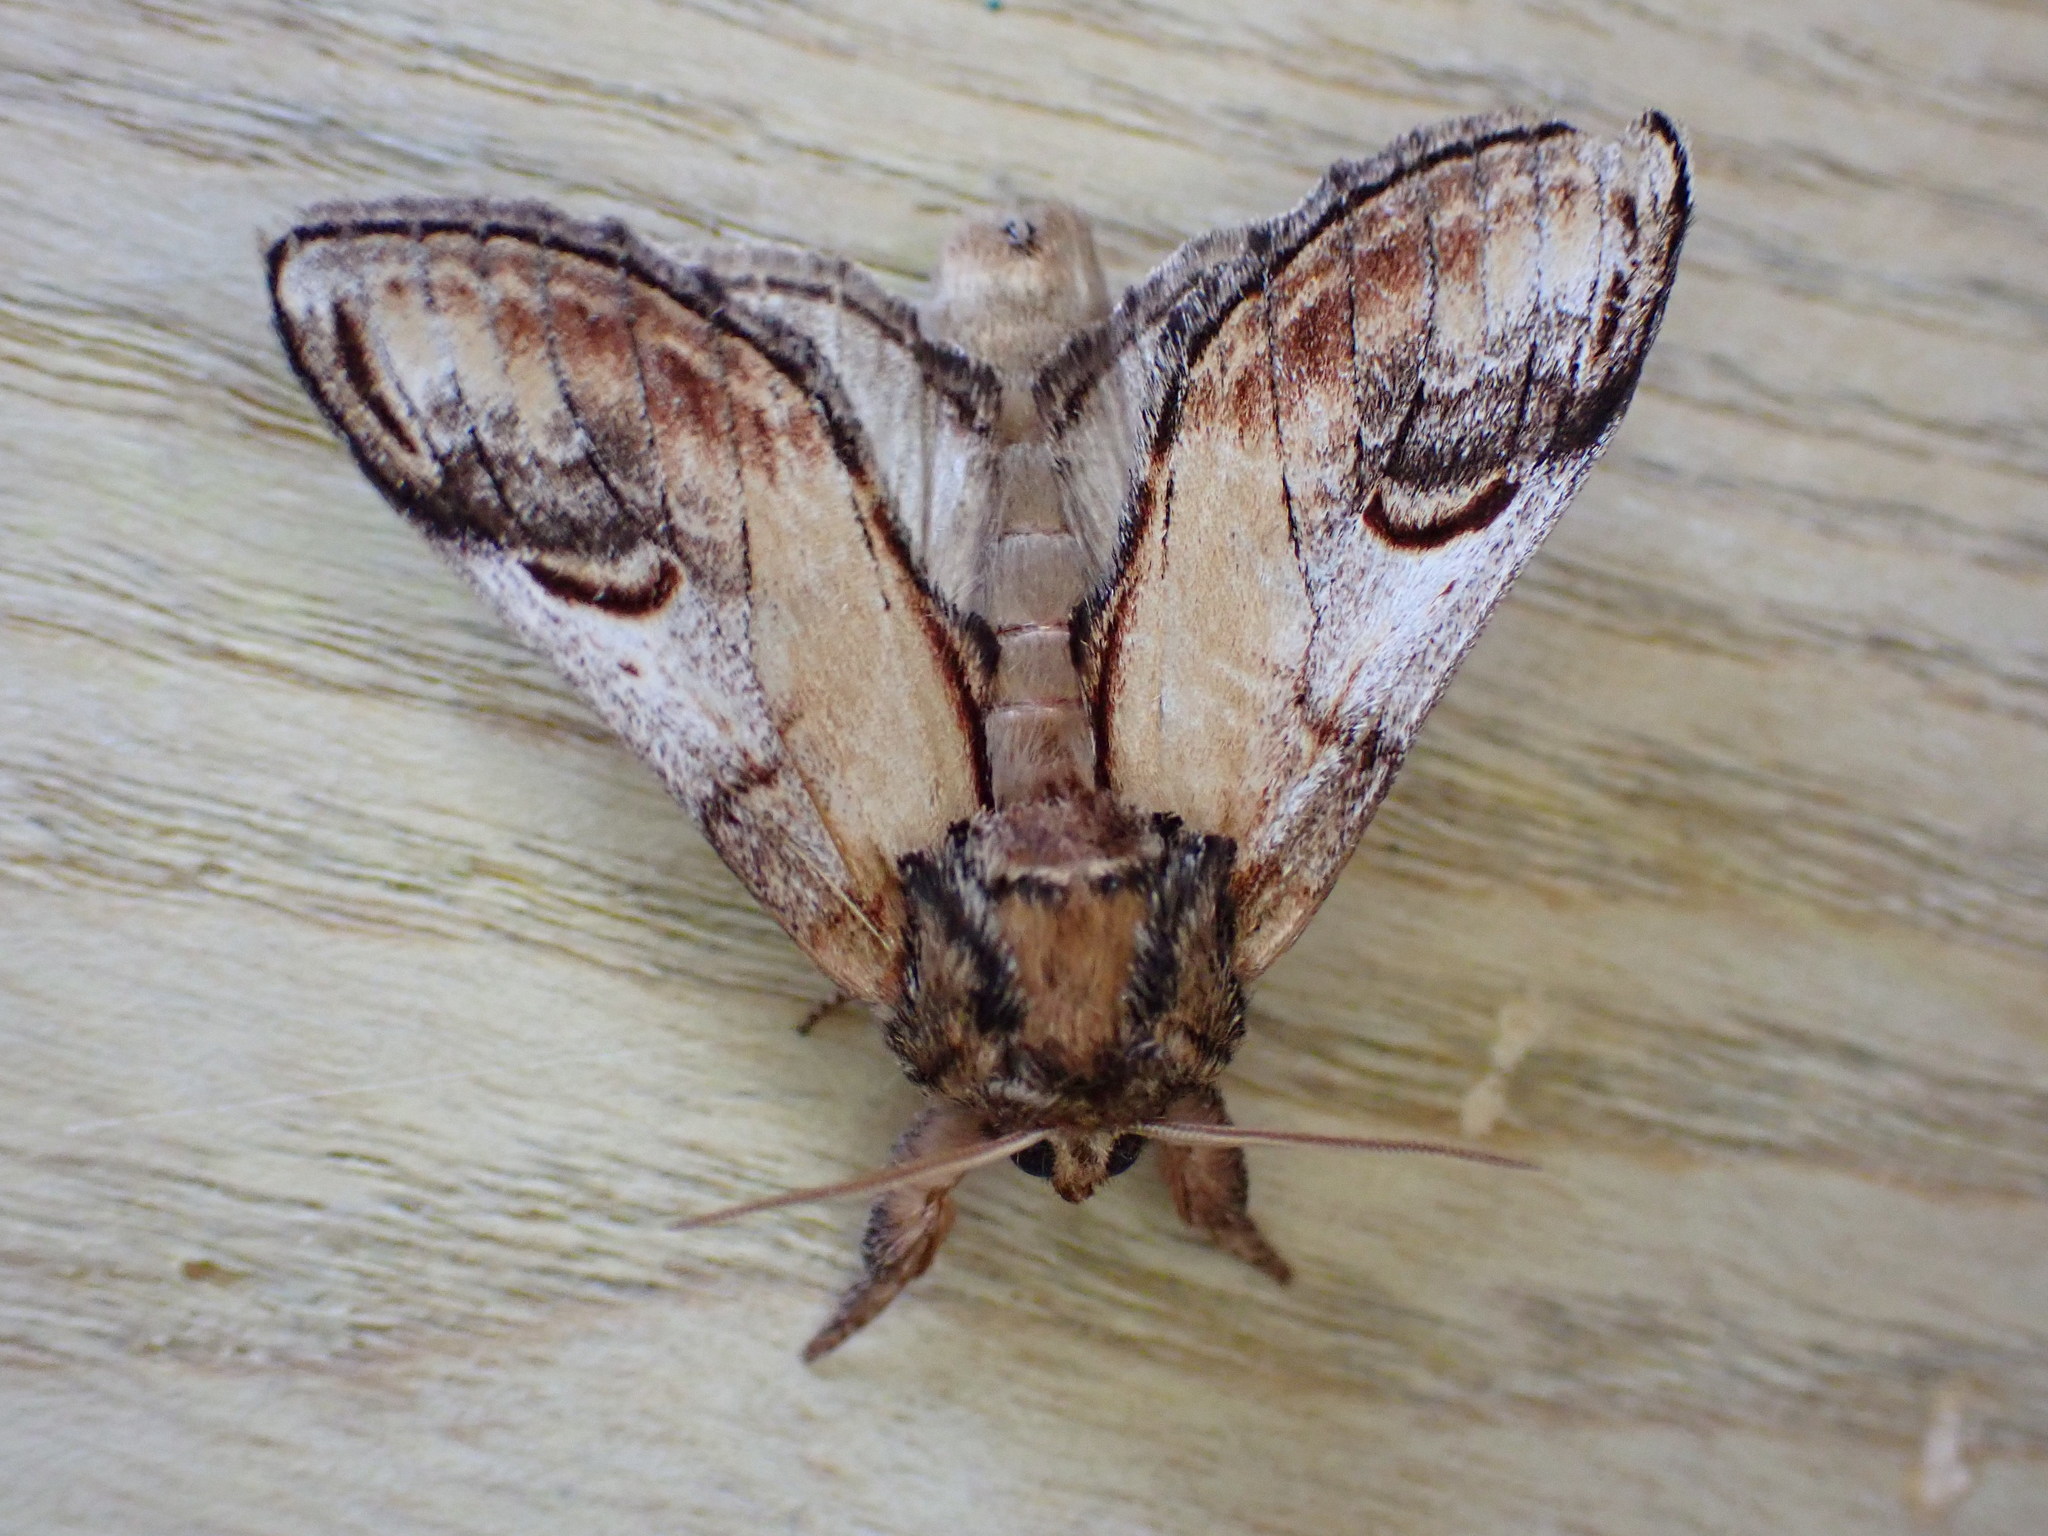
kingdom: Animalia
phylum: Arthropoda
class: Insecta
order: Lepidoptera
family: Notodontidae
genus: Notodonta
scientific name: Notodonta ziczac
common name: Pebble prominent
